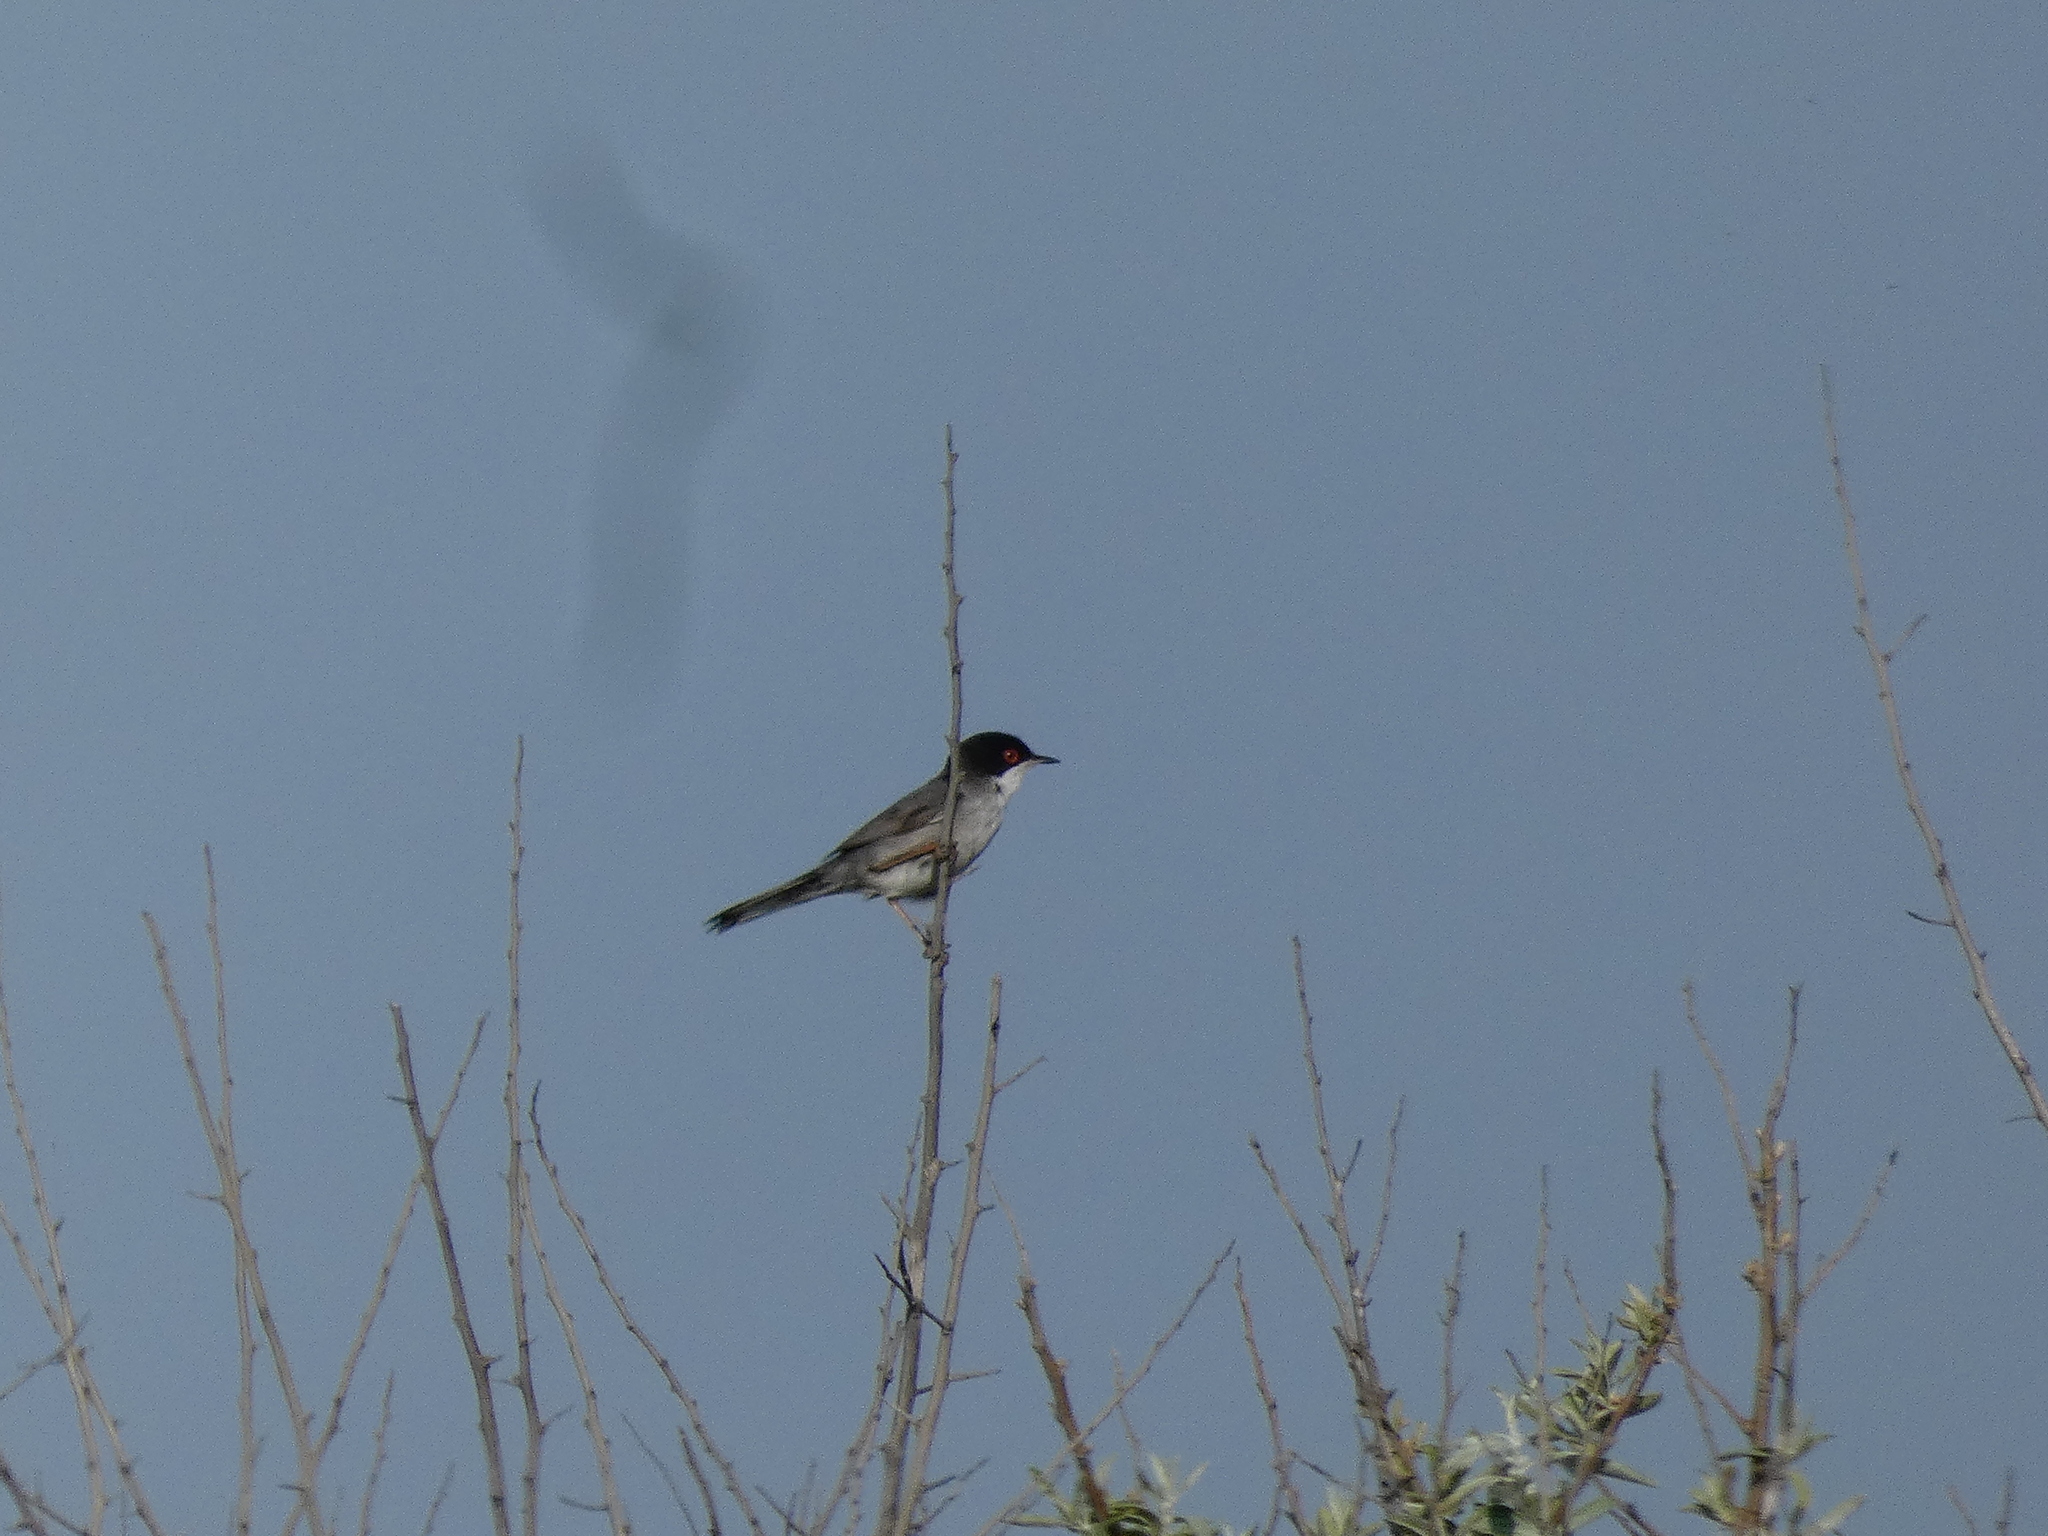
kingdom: Animalia
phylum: Chordata
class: Aves
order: Passeriformes
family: Sylviidae
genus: Curruca
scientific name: Curruca melanocephala
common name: Sardinian warbler
